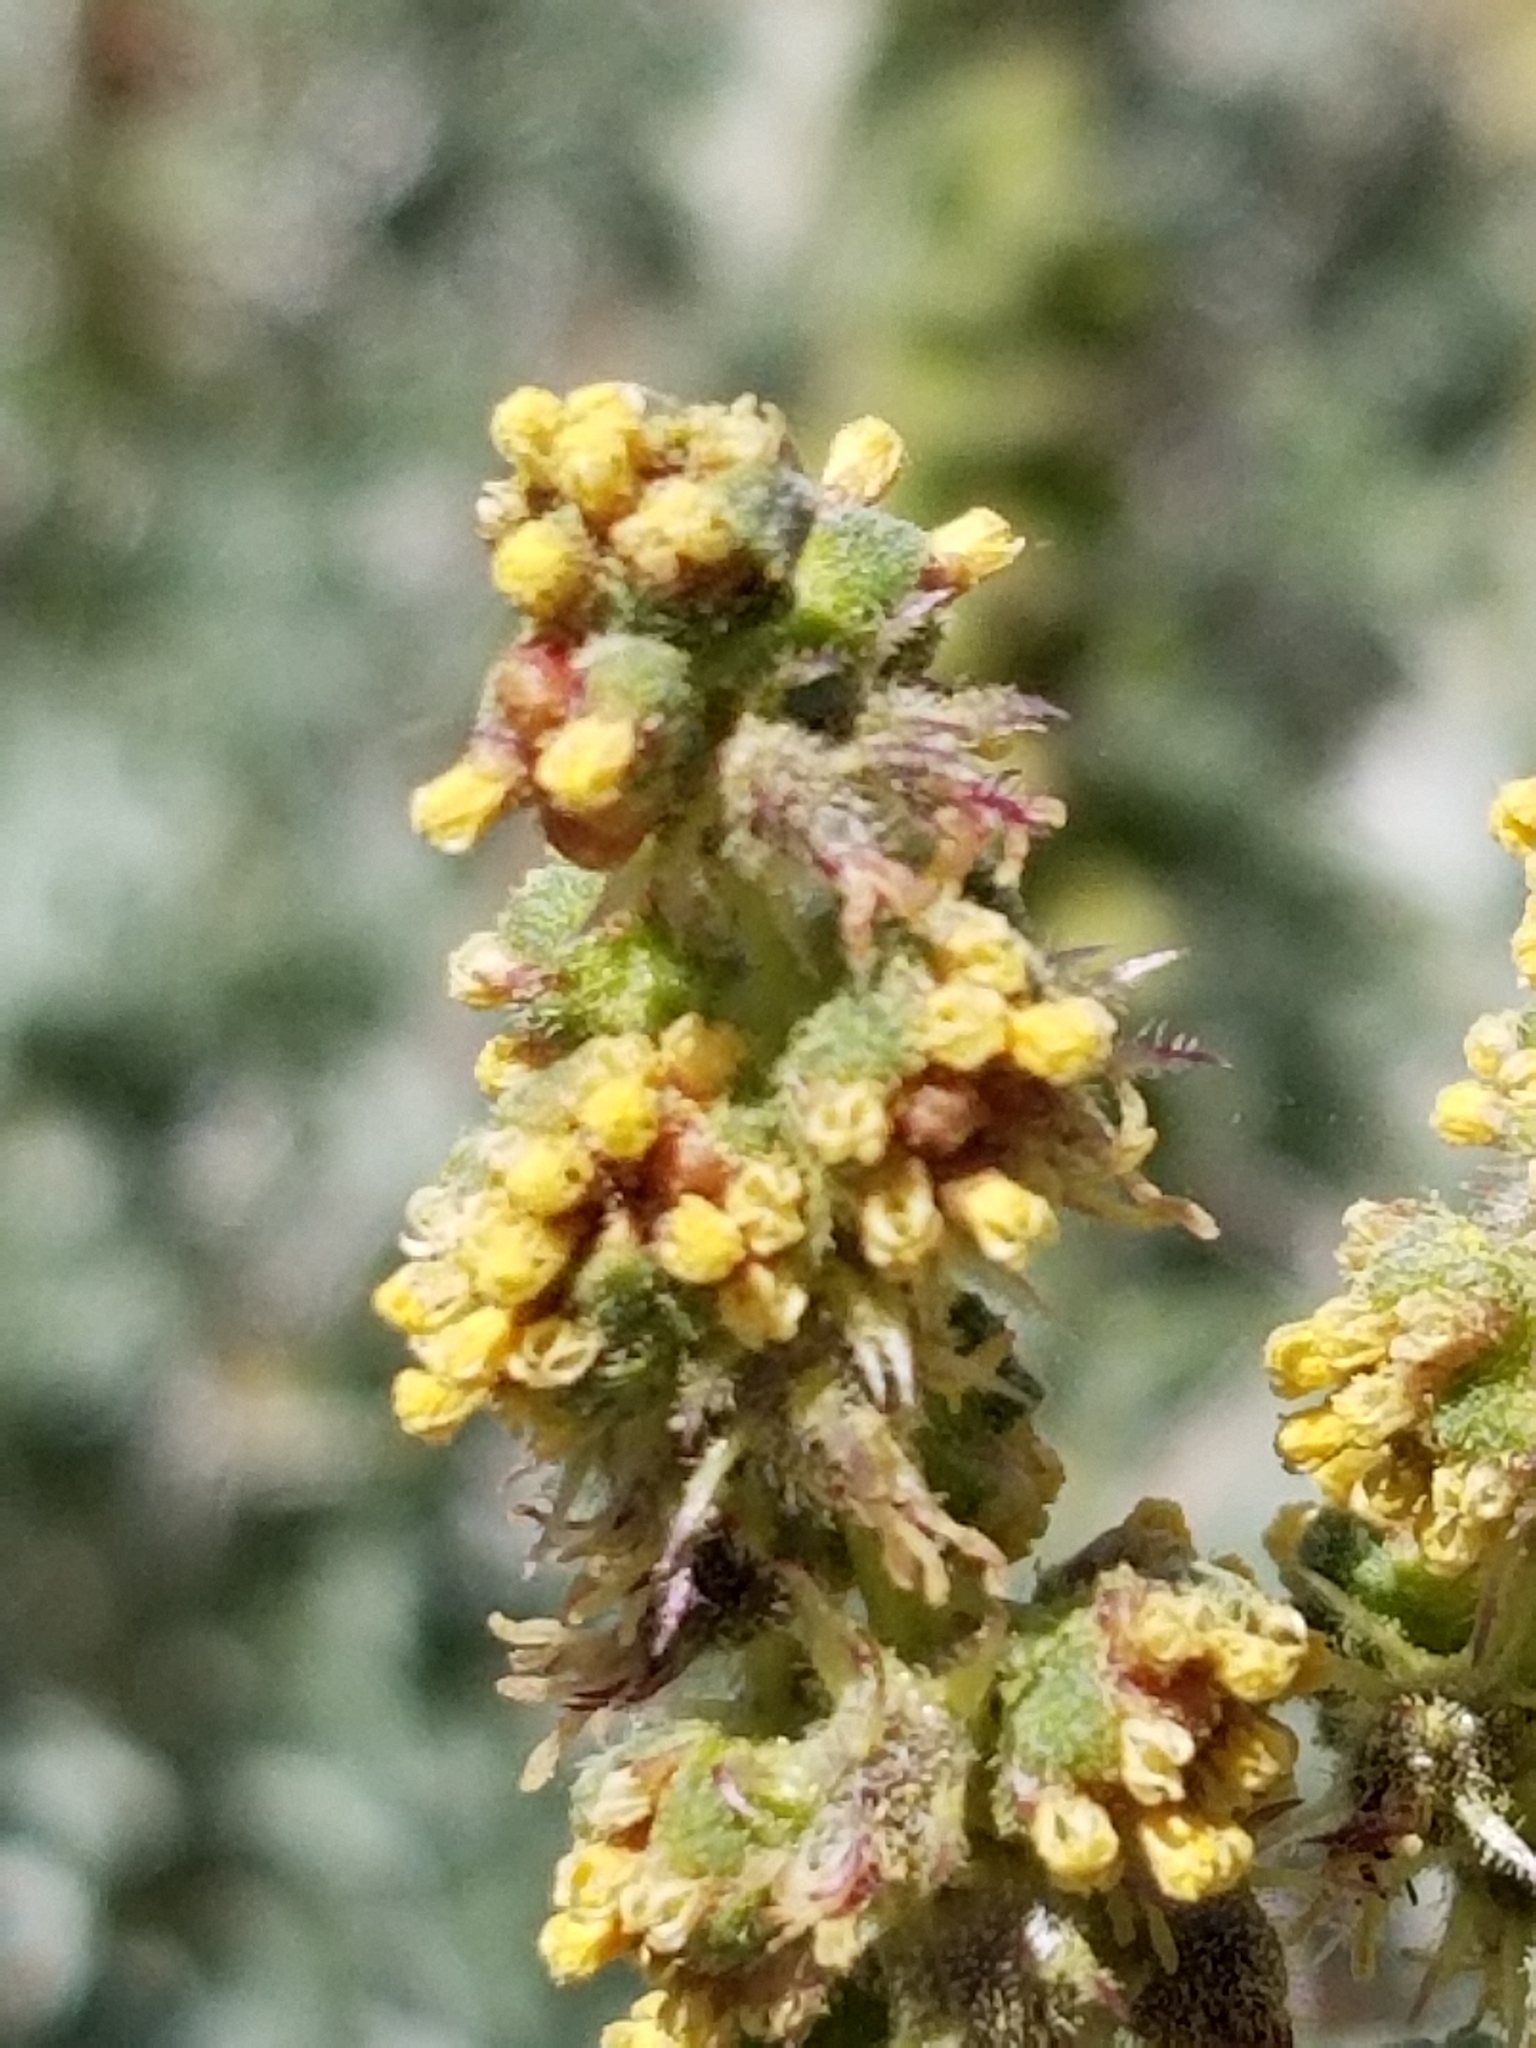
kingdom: Plantae
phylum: Tracheophyta
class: Magnoliopsida
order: Asterales
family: Asteraceae
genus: Ambrosia
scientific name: Ambrosia dumosa
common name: Bur-sage
